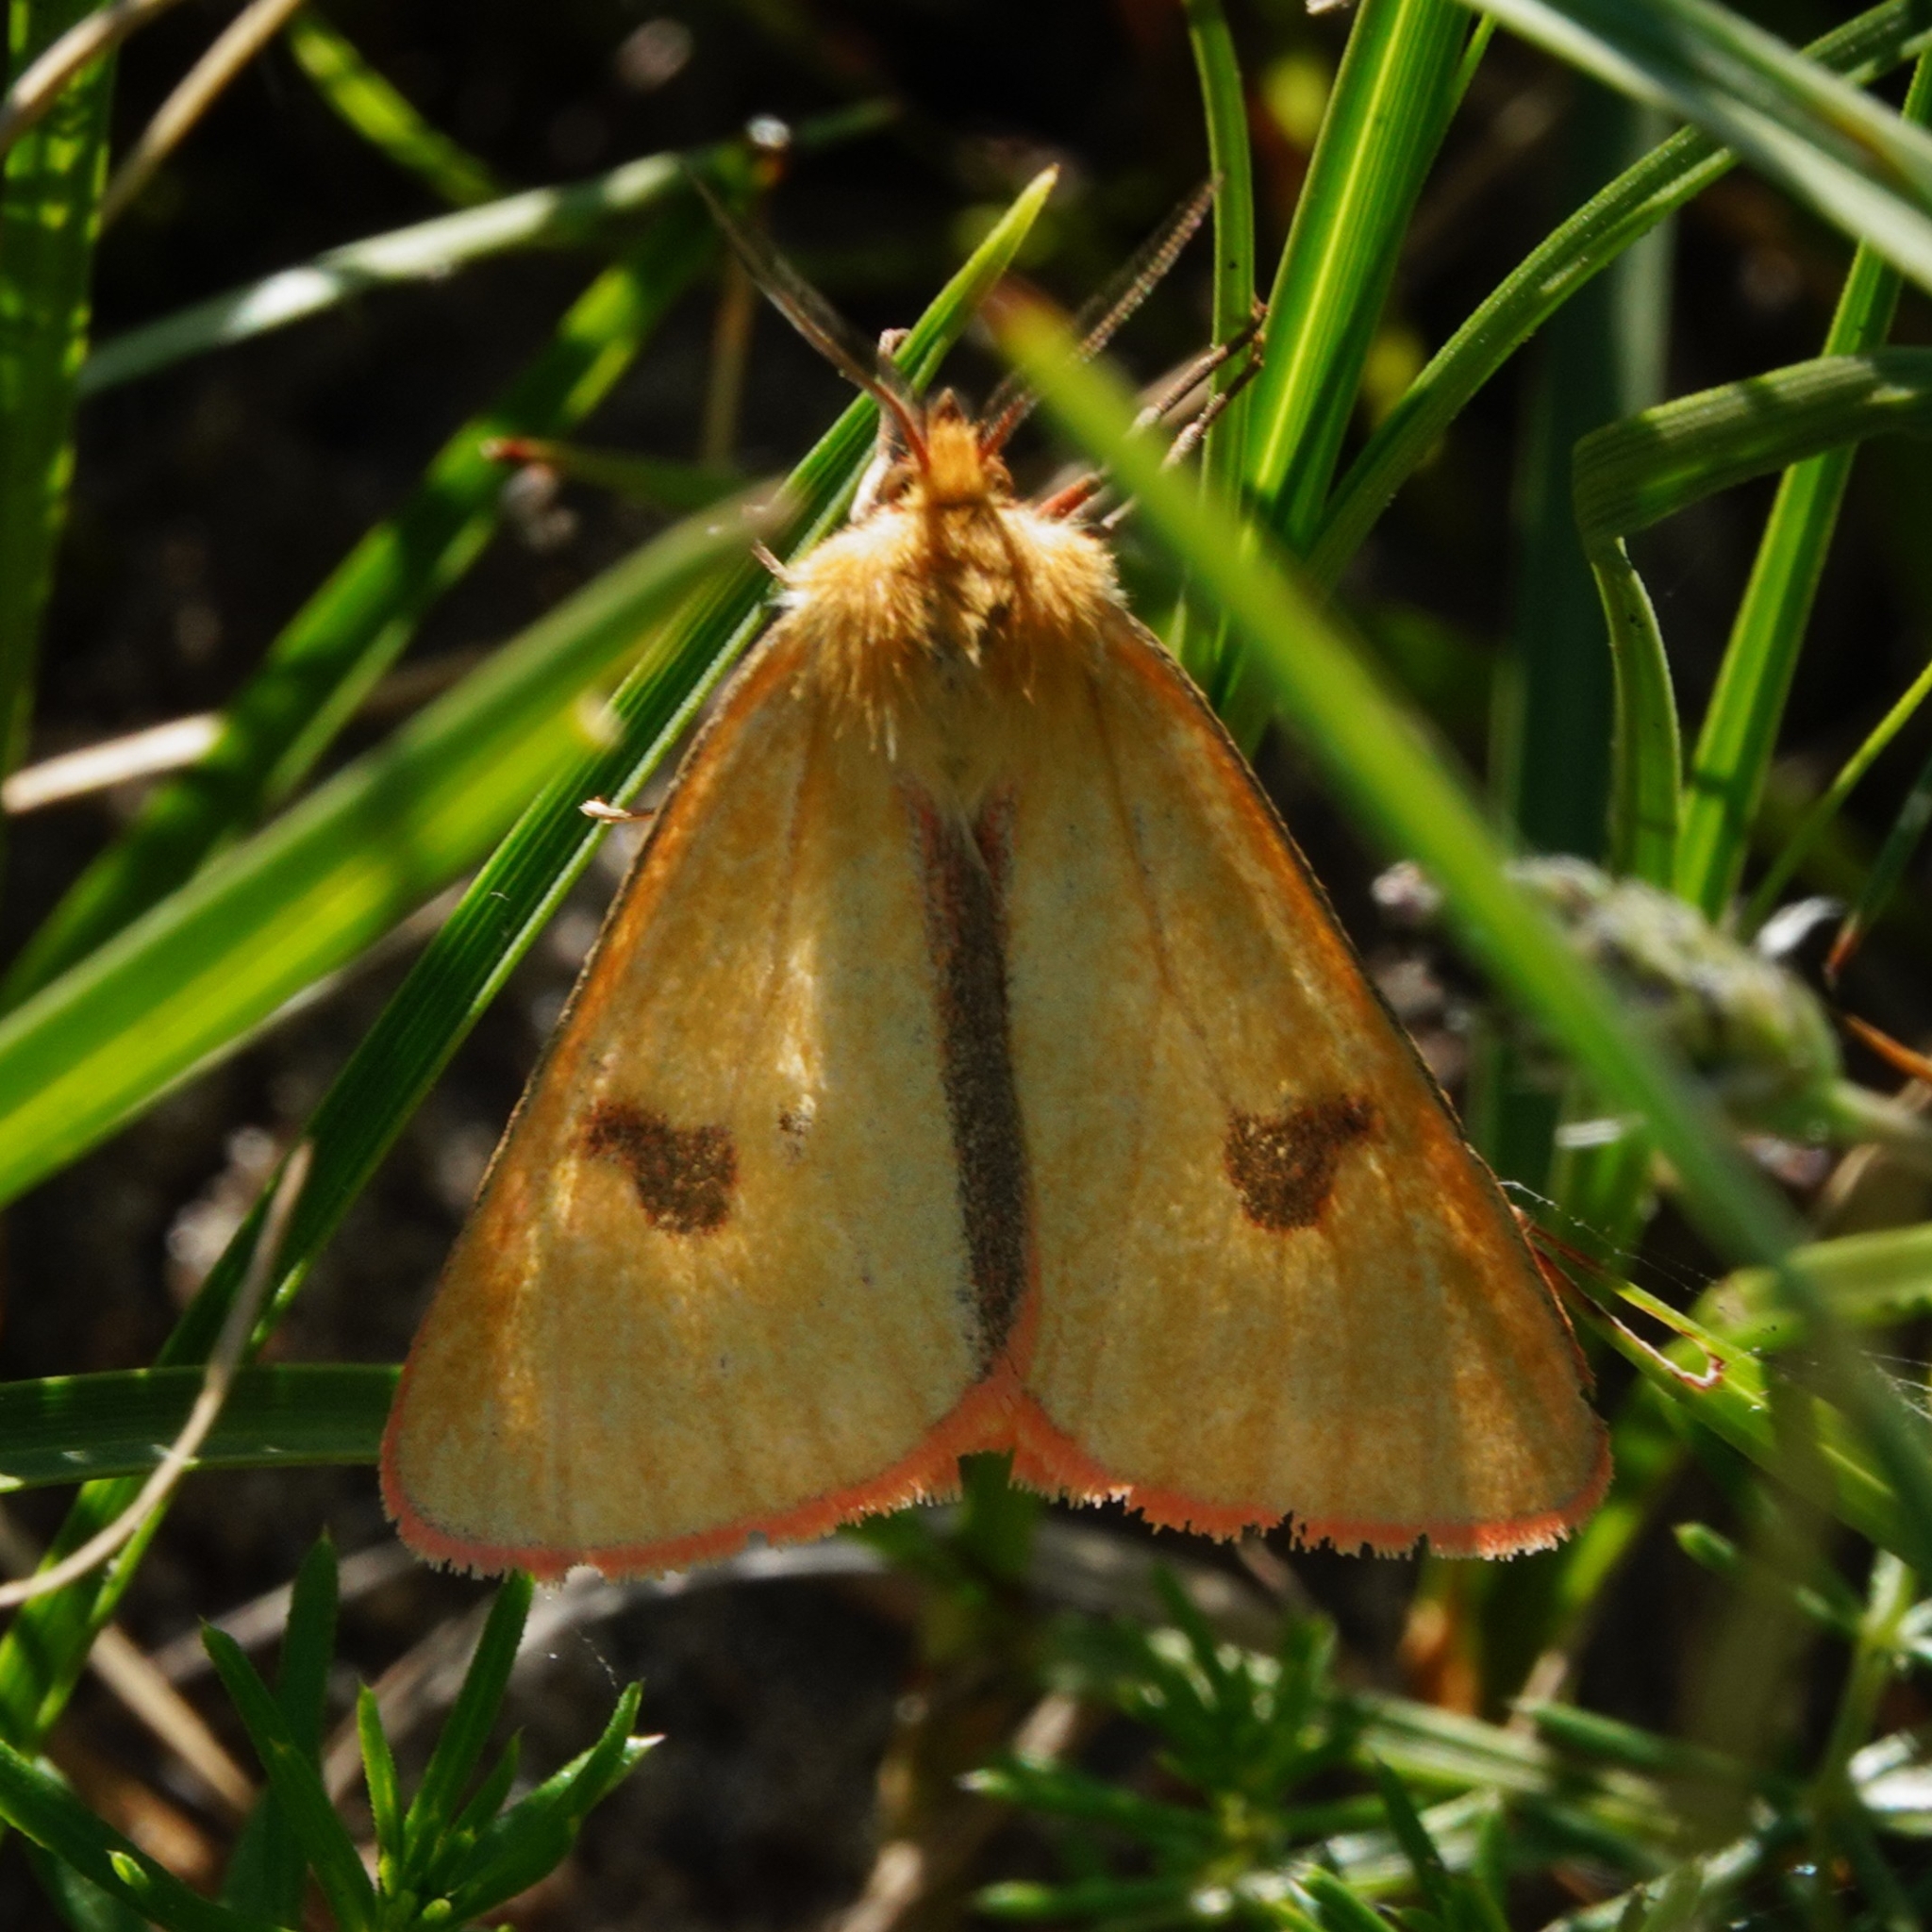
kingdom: Animalia
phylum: Arthropoda
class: Insecta
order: Lepidoptera
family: Erebidae
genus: Diacrisia
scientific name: Diacrisia sannio
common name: Clouded buff
